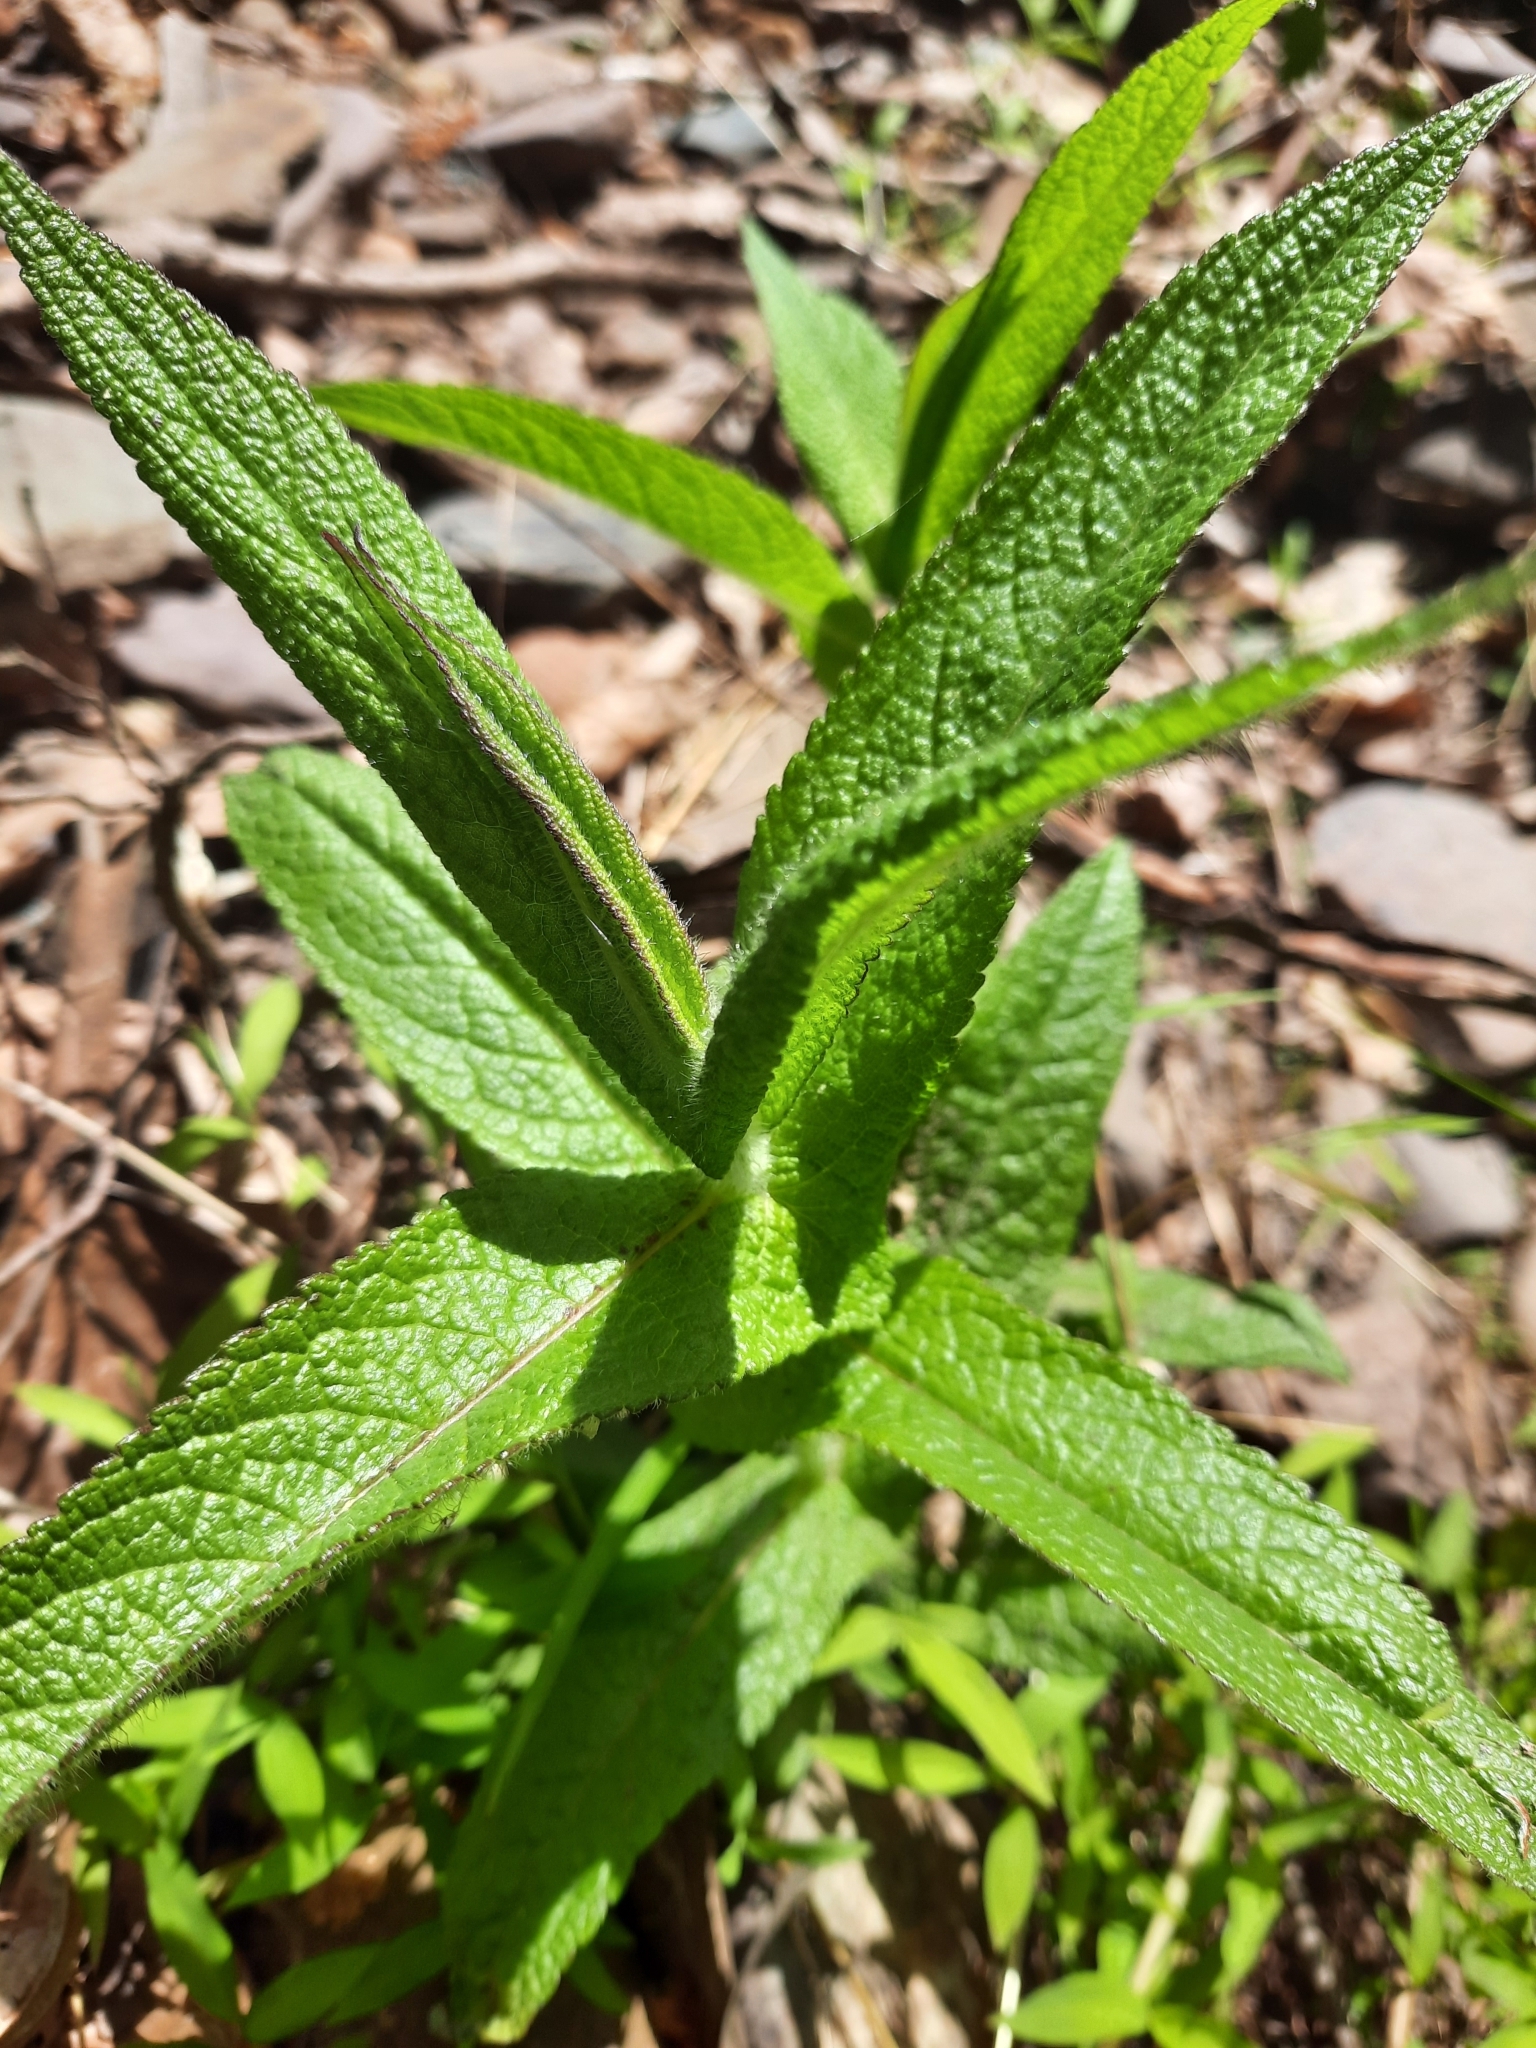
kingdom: Plantae
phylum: Tracheophyta
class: Magnoliopsida
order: Asterales
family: Asteraceae
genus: Eupatorium
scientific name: Eupatorium perfoliatum
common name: Boneset
